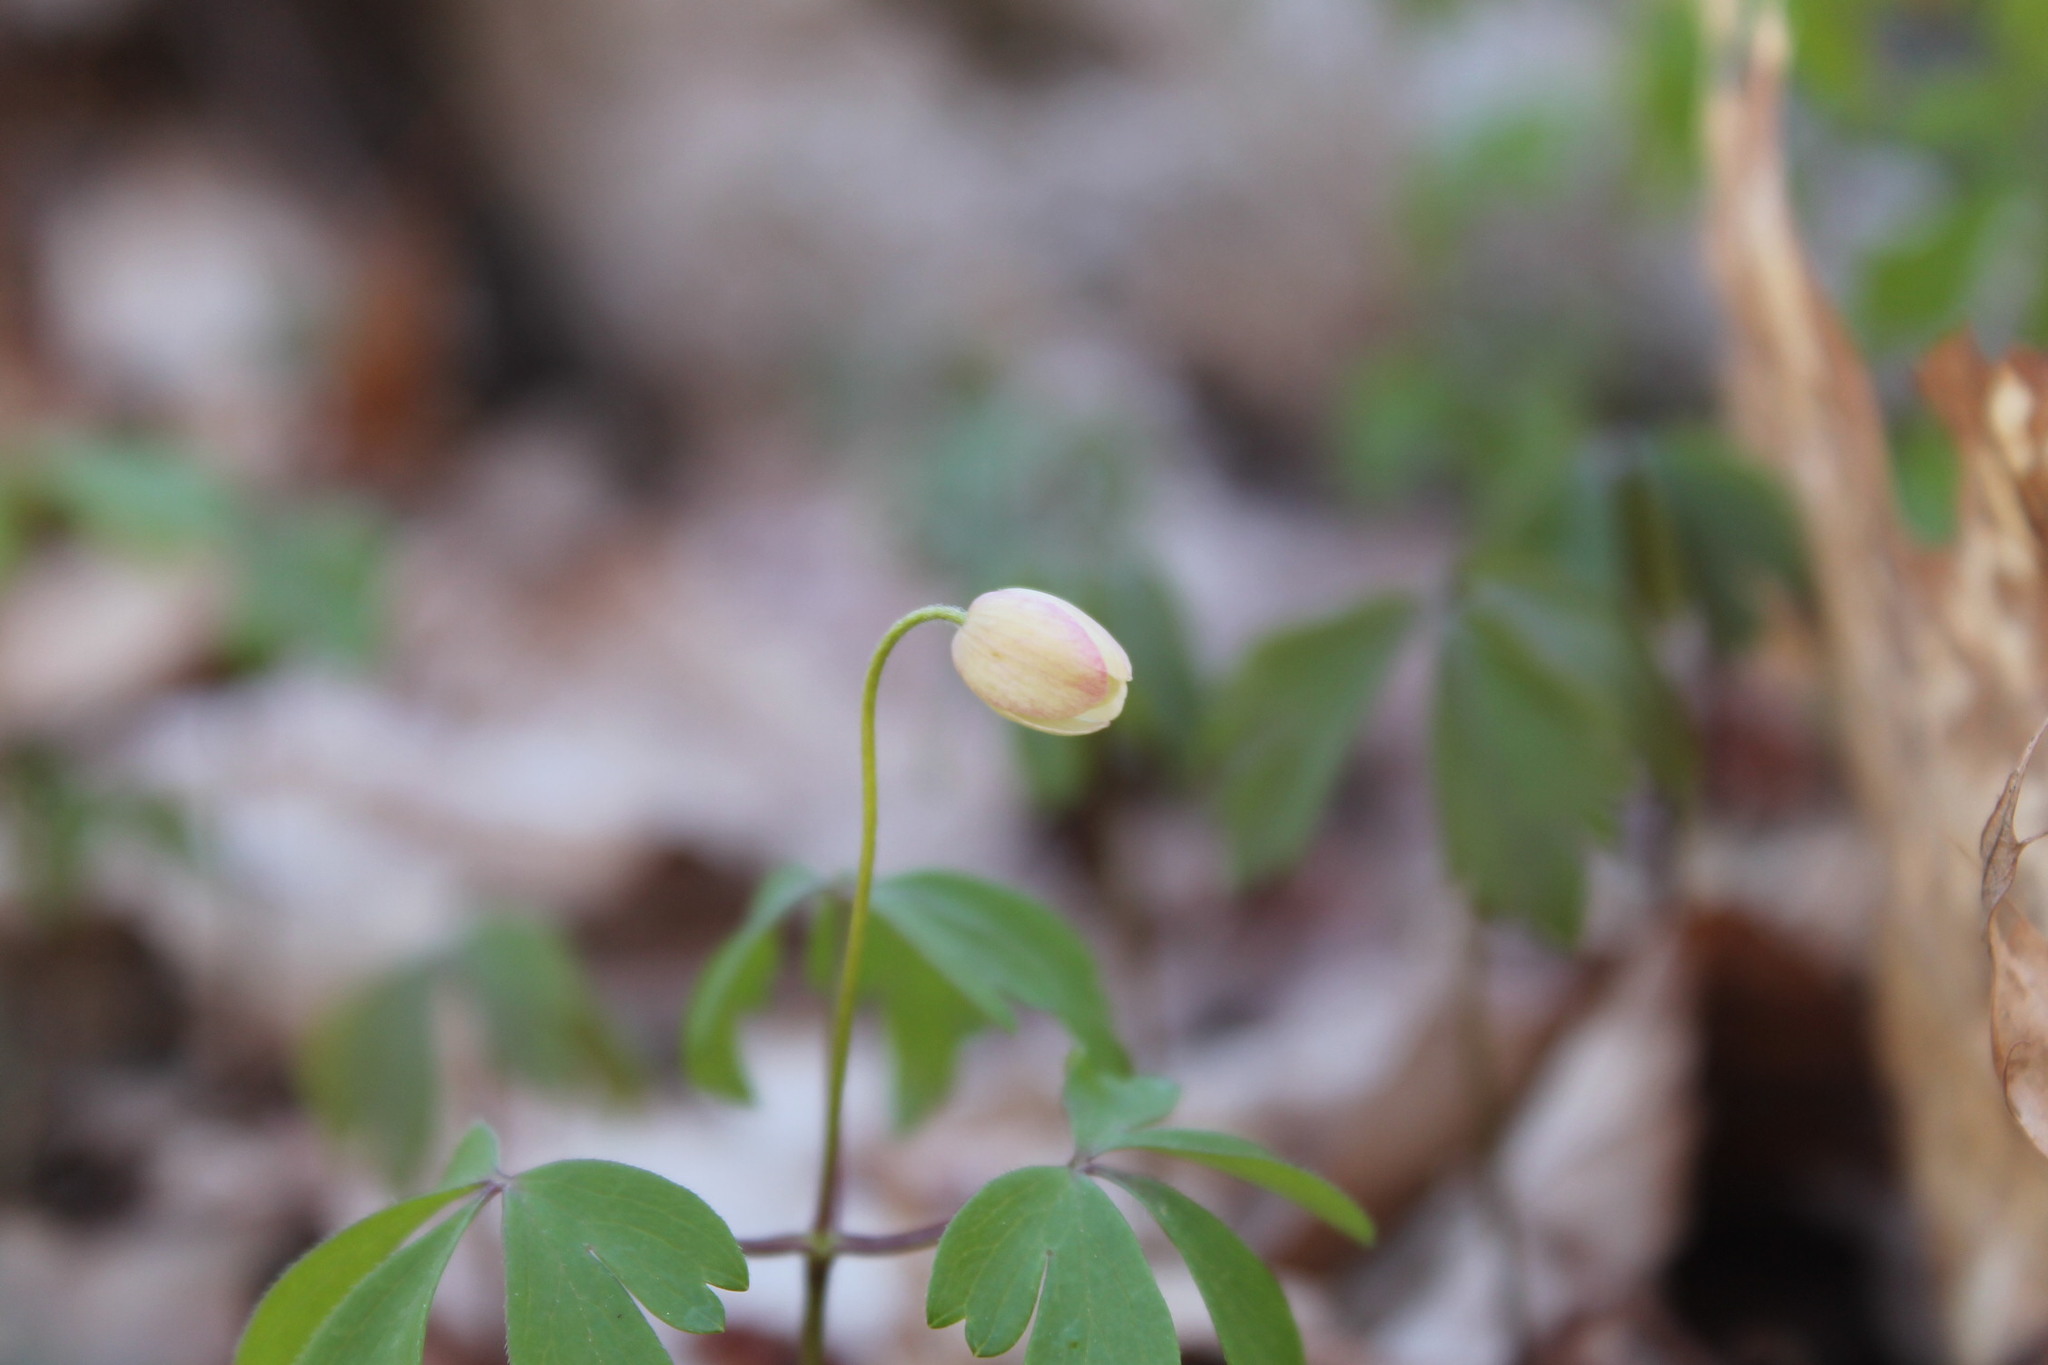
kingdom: Plantae
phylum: Tracheophyta
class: Magnoliopsida
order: Ranunculales
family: Ranunculaceae
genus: Anemone
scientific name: Anemone quinquefolia
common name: Wood anemone
